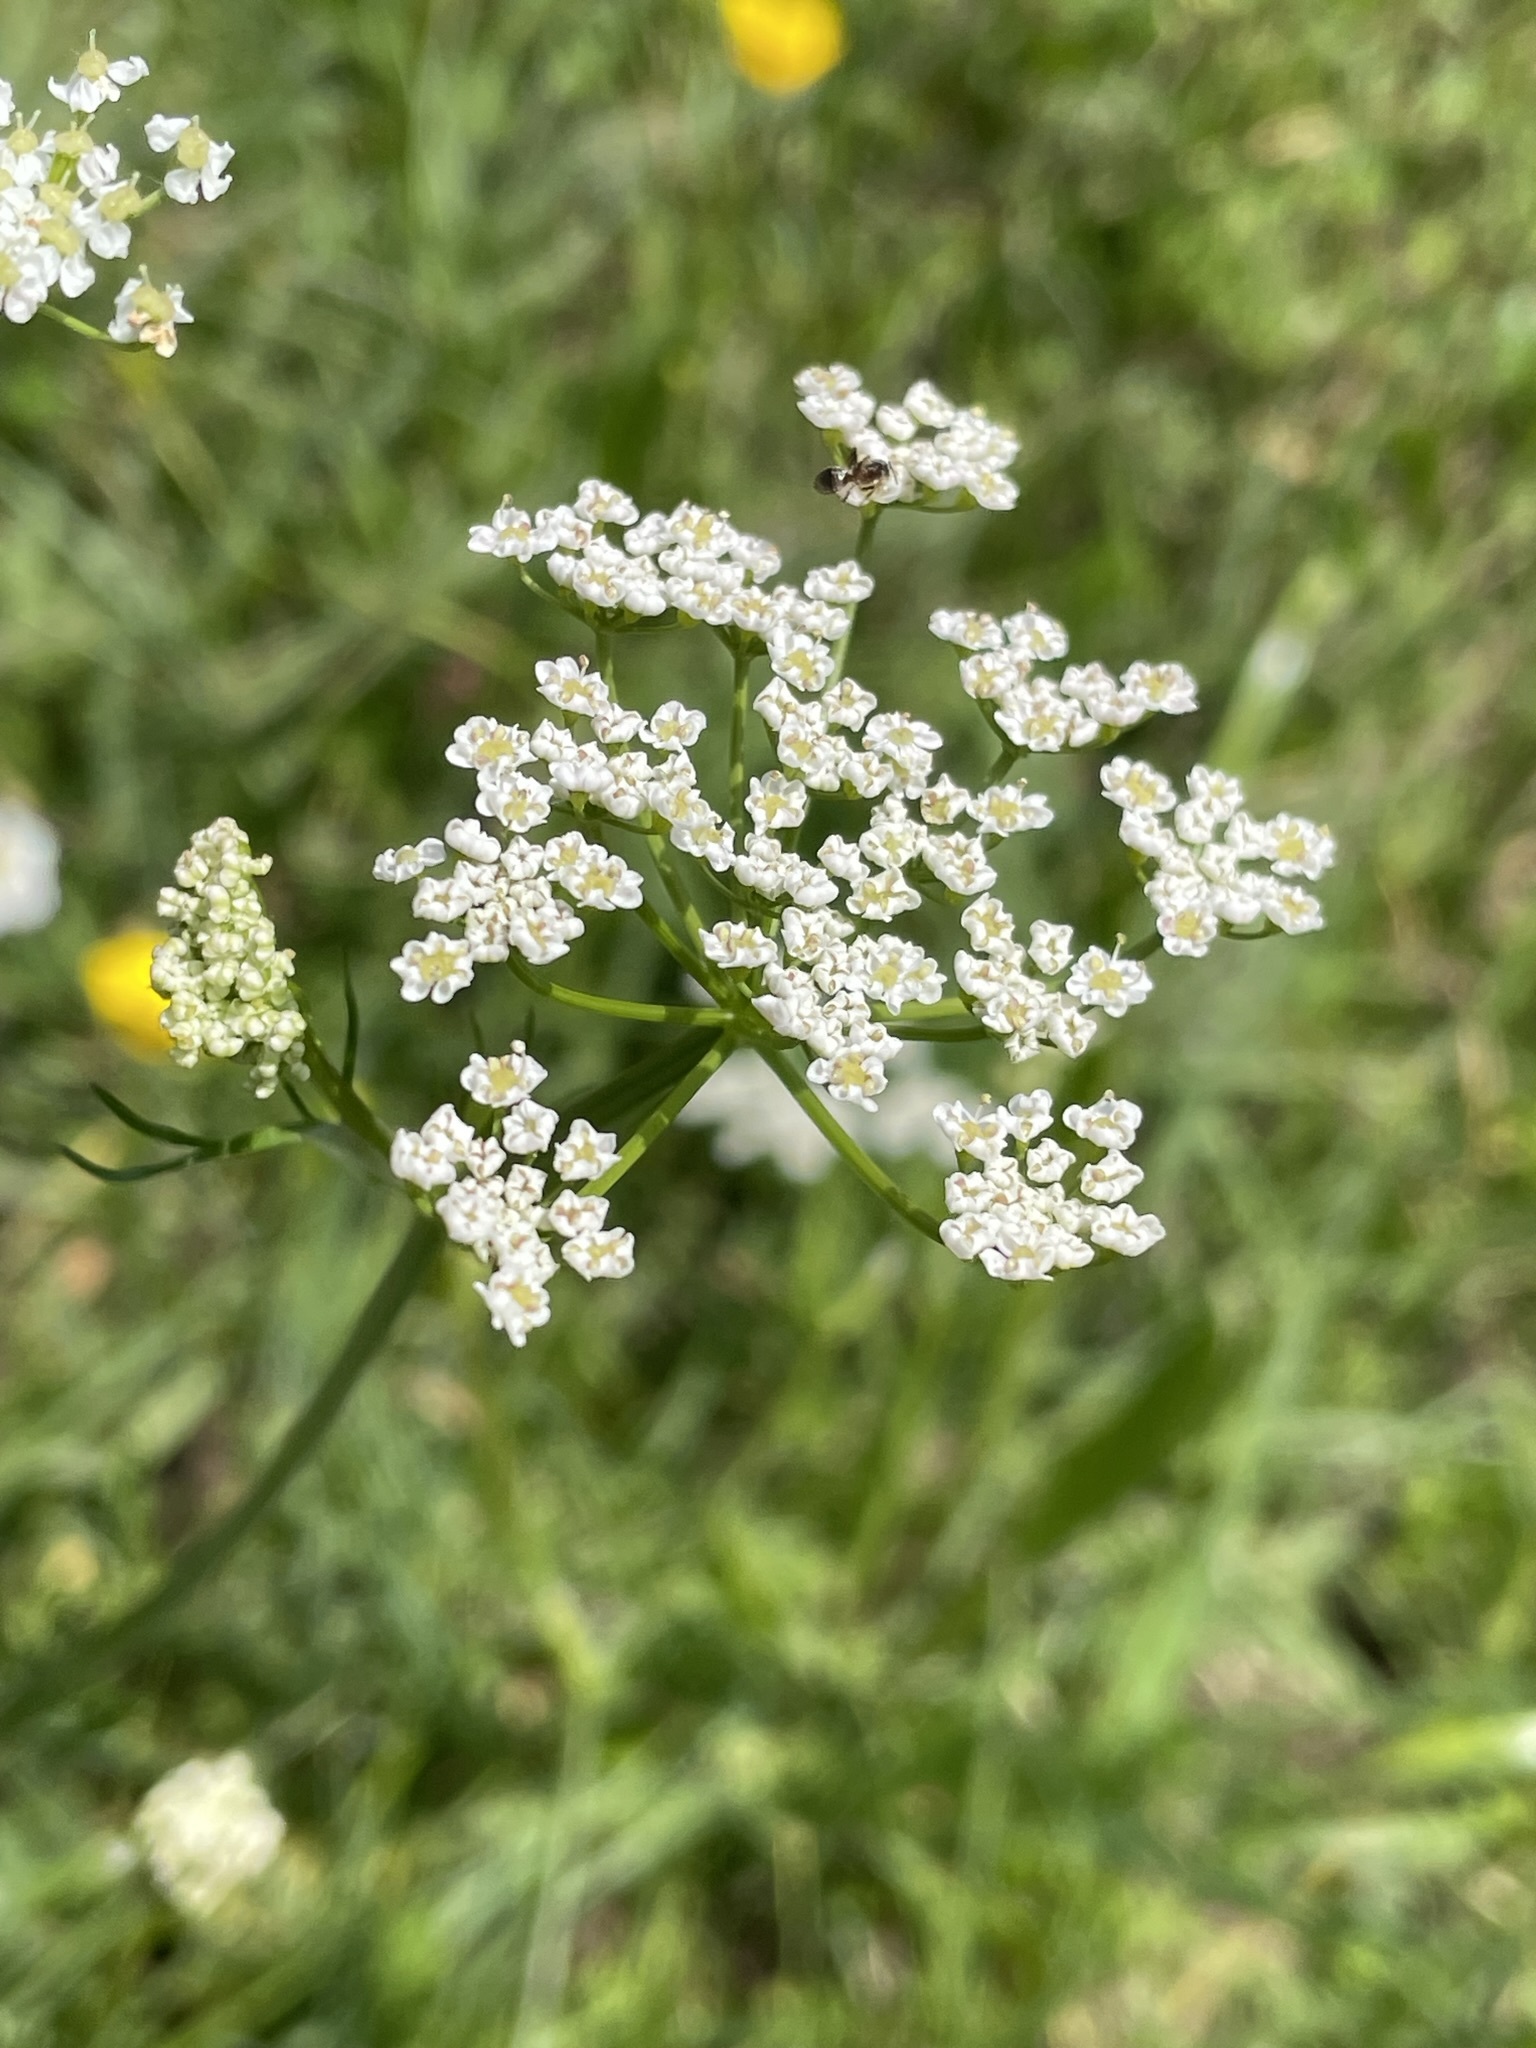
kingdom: Plantae
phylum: Tracheophyta
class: Magnoliopsida
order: Apiales
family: Apiaceae
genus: Carum
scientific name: Carum carvi
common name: Caraway
